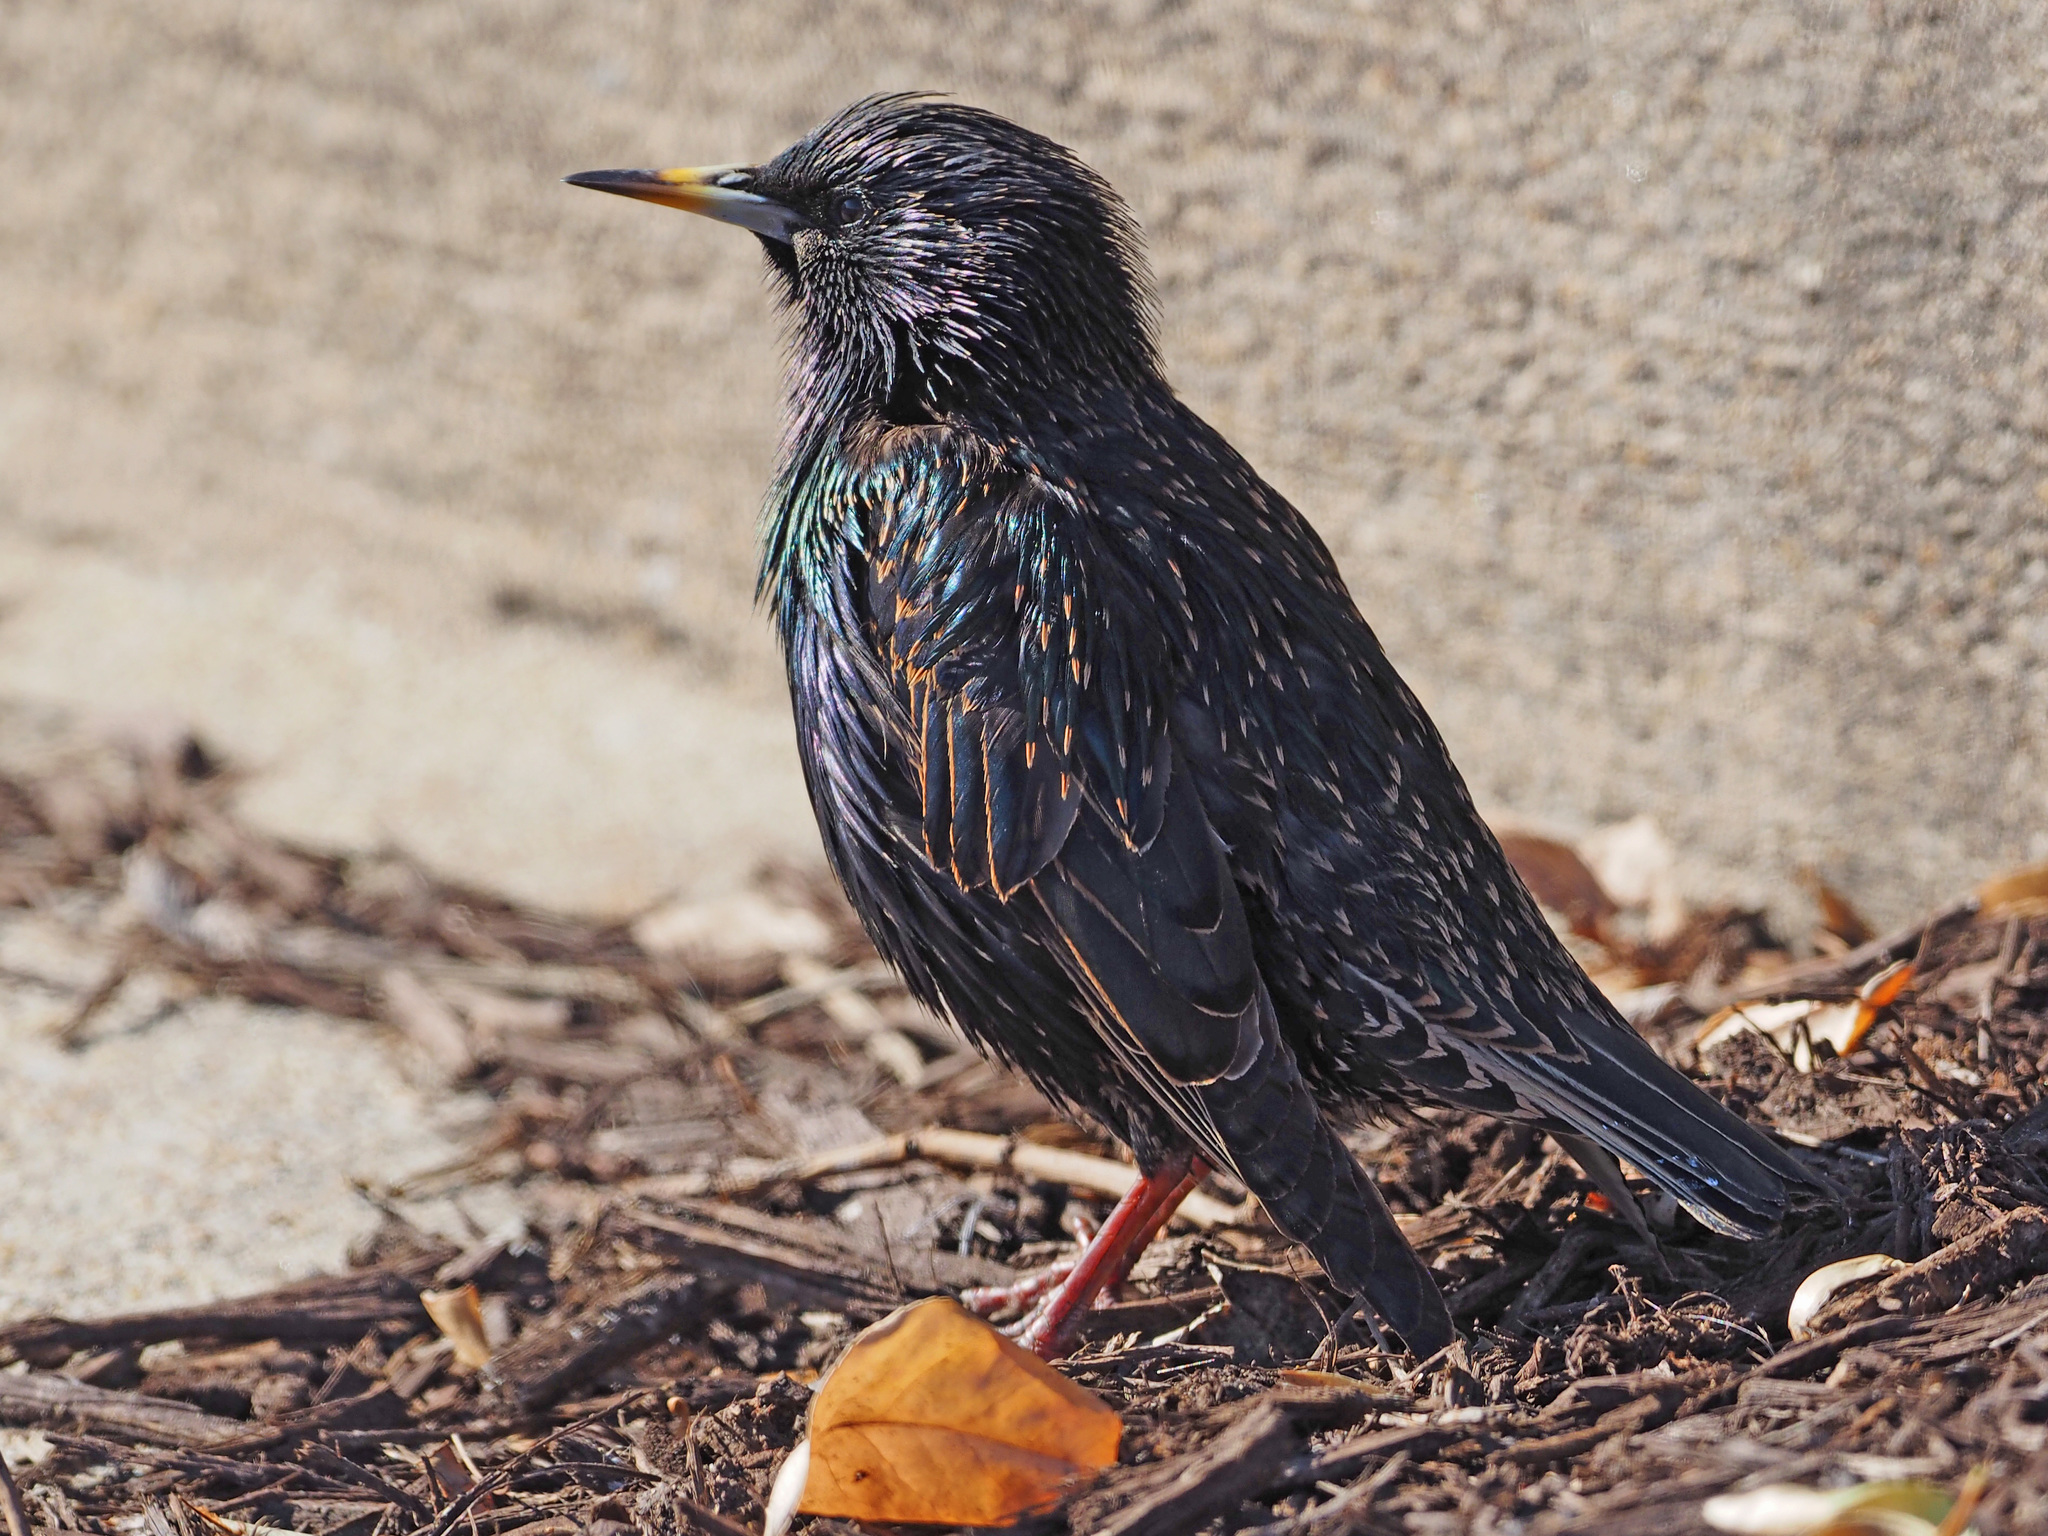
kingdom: Animalia
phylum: Chordata
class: Aves
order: Passeriformes
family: Sturnidae
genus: Sturnus
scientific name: Sturnus vulgaris
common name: Common starling
